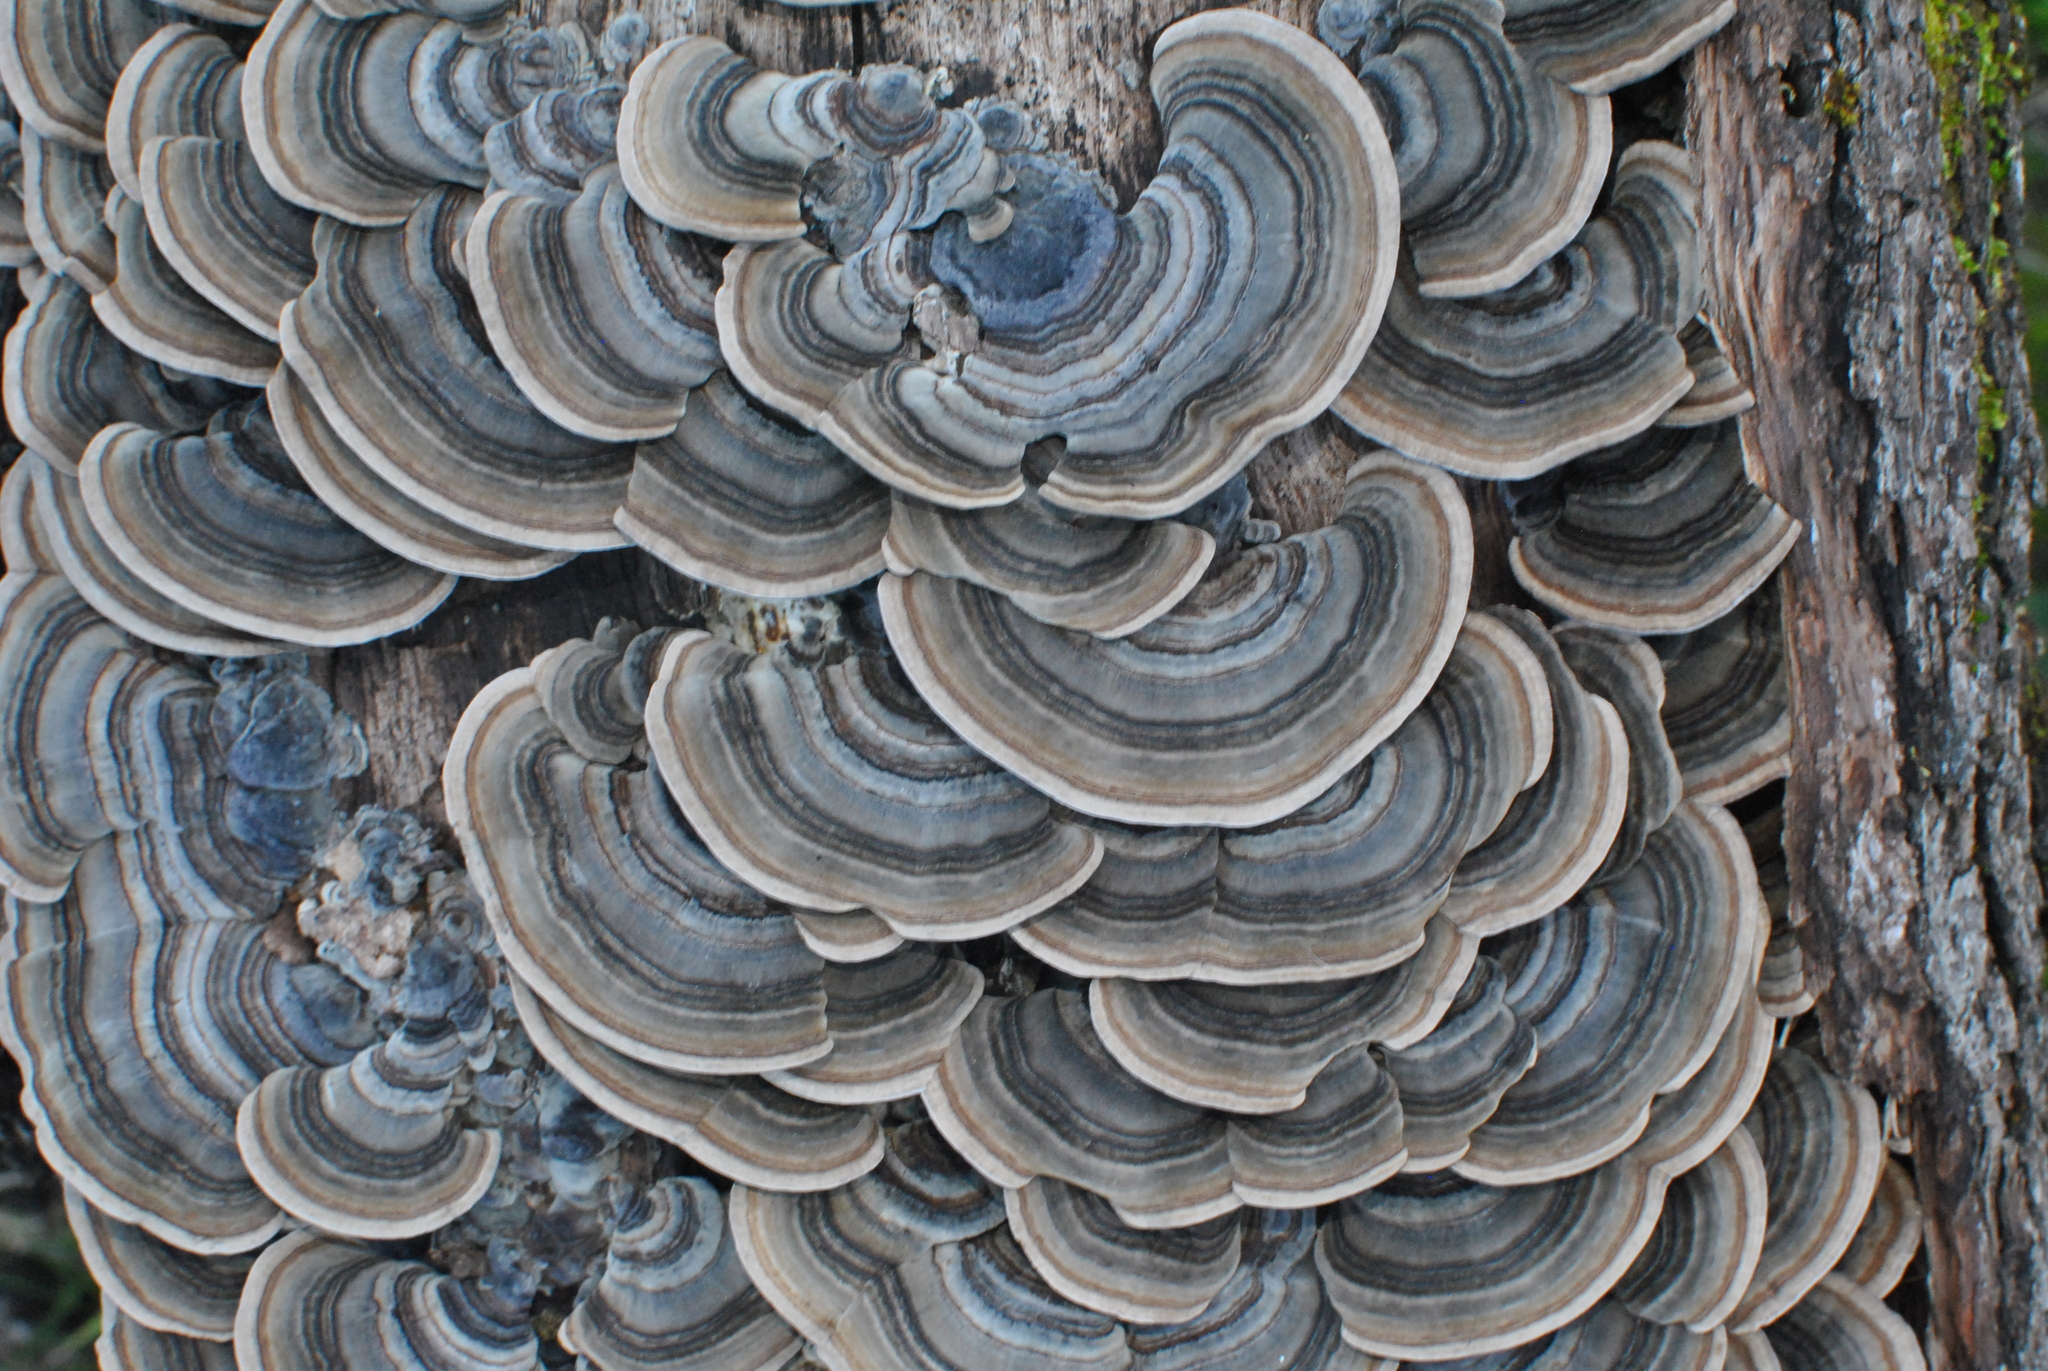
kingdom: Fungi
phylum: Basidiomycota
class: Agaricomycetes
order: Polyporales
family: Polyporaceae
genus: Trametes
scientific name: Trametes versicolor
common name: Turkeytail
